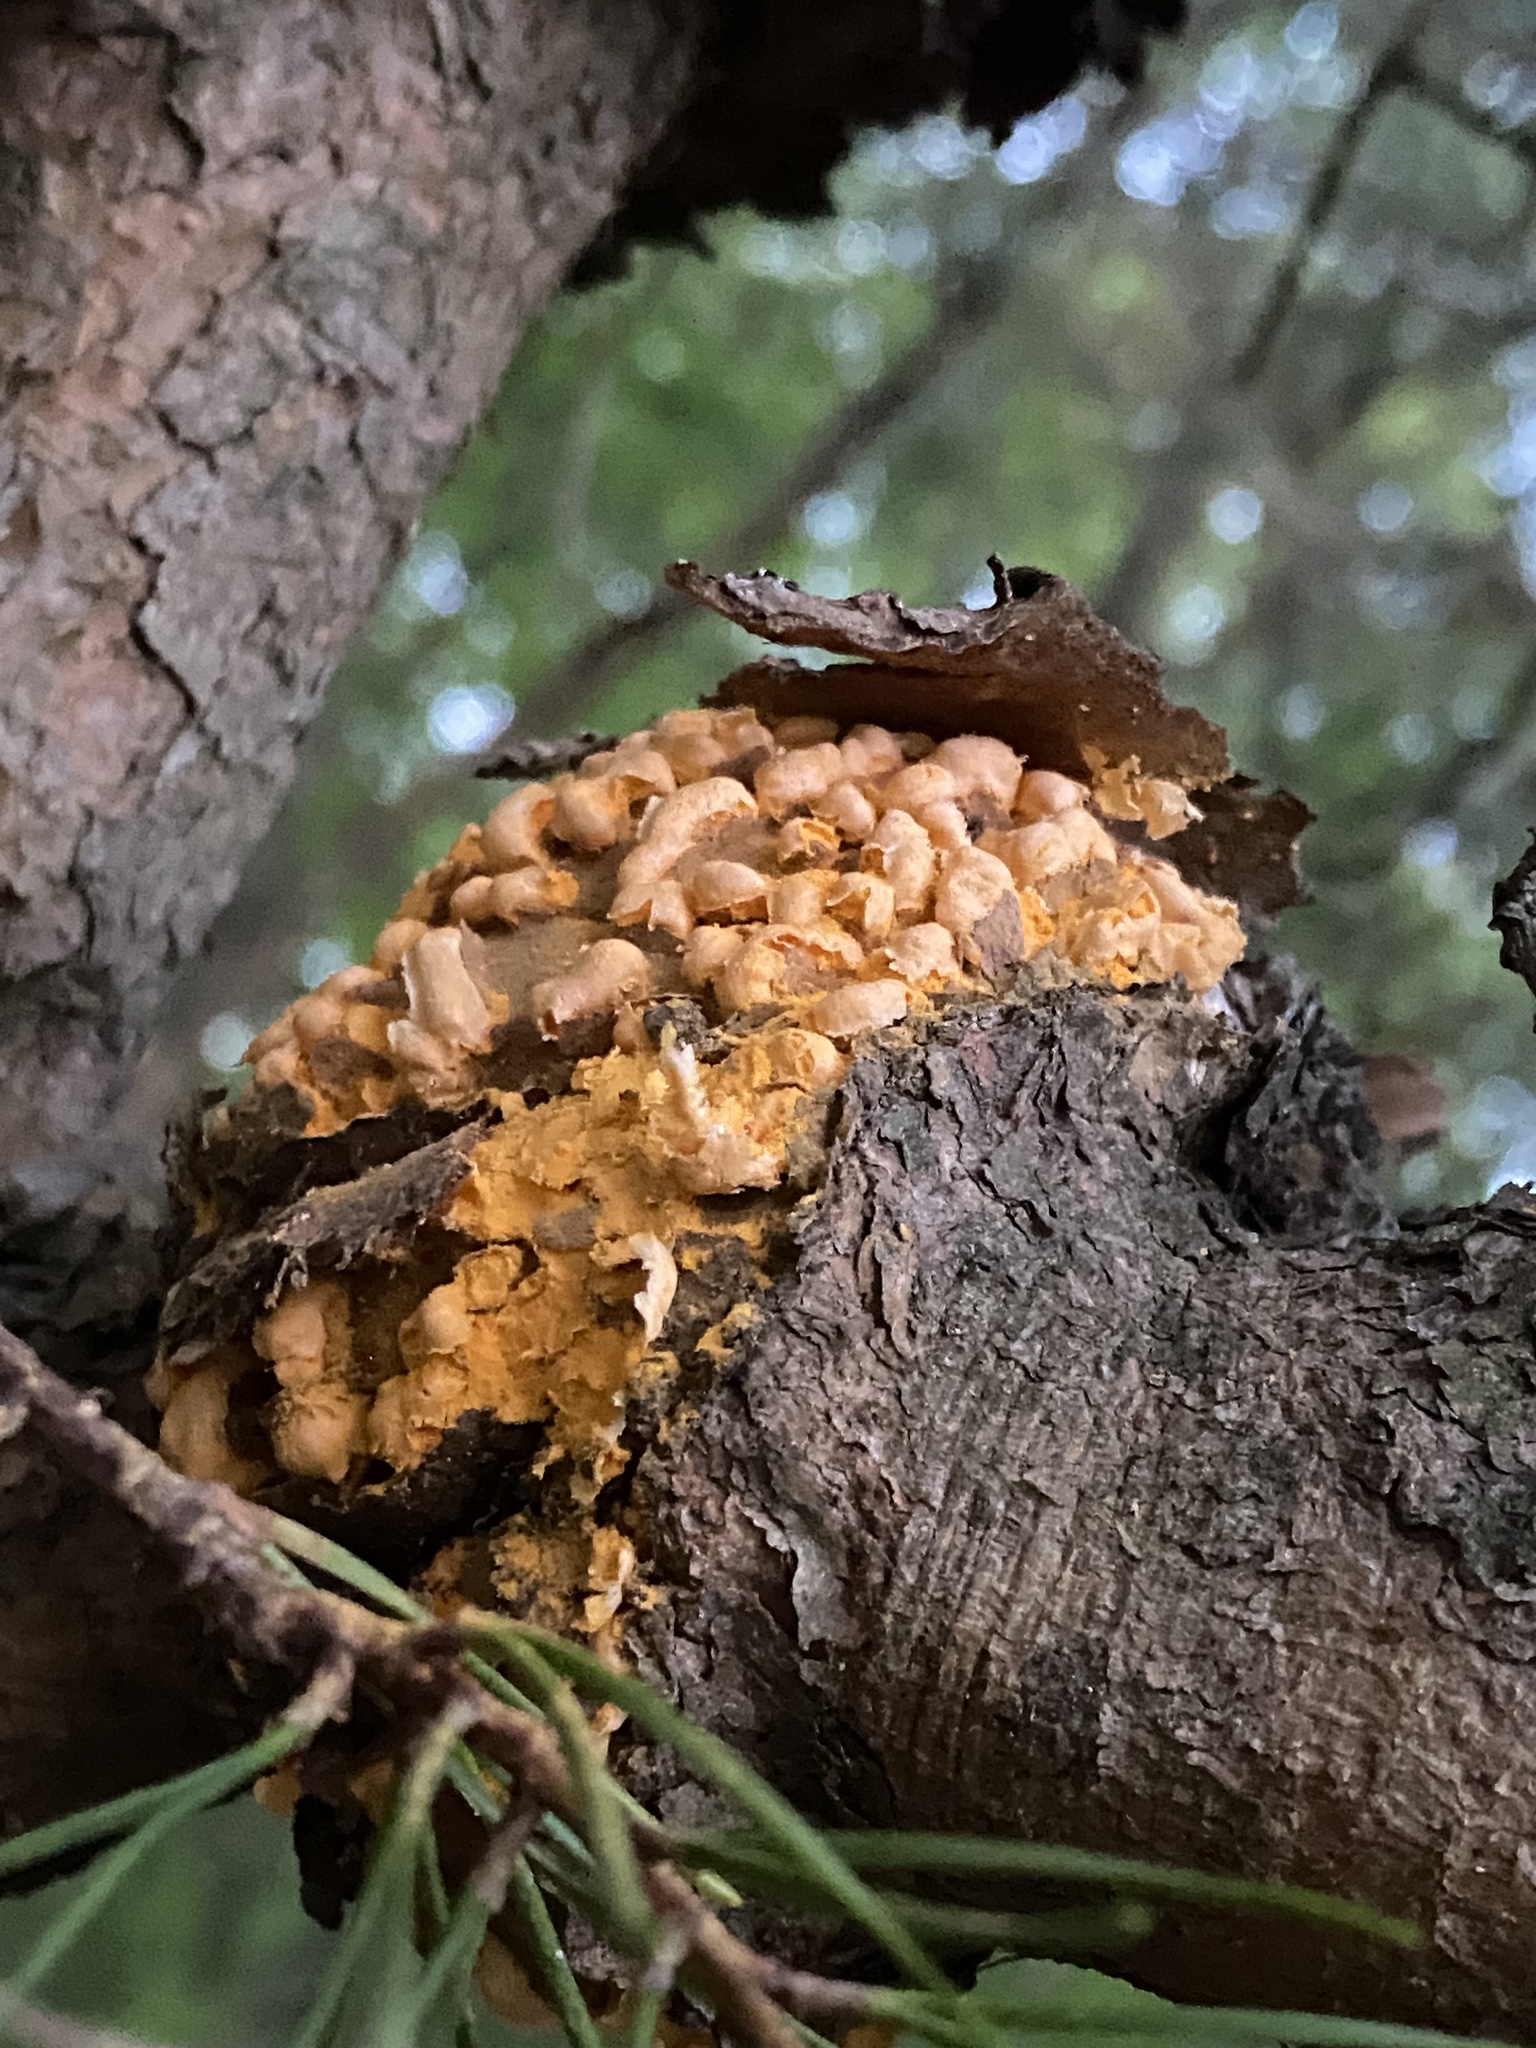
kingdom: Fungi
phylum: Basidiomycota
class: Pucciniomycetes
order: Pucciniales
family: Cronartiaceae
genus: Cronartium
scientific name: Cronartium quercuum
